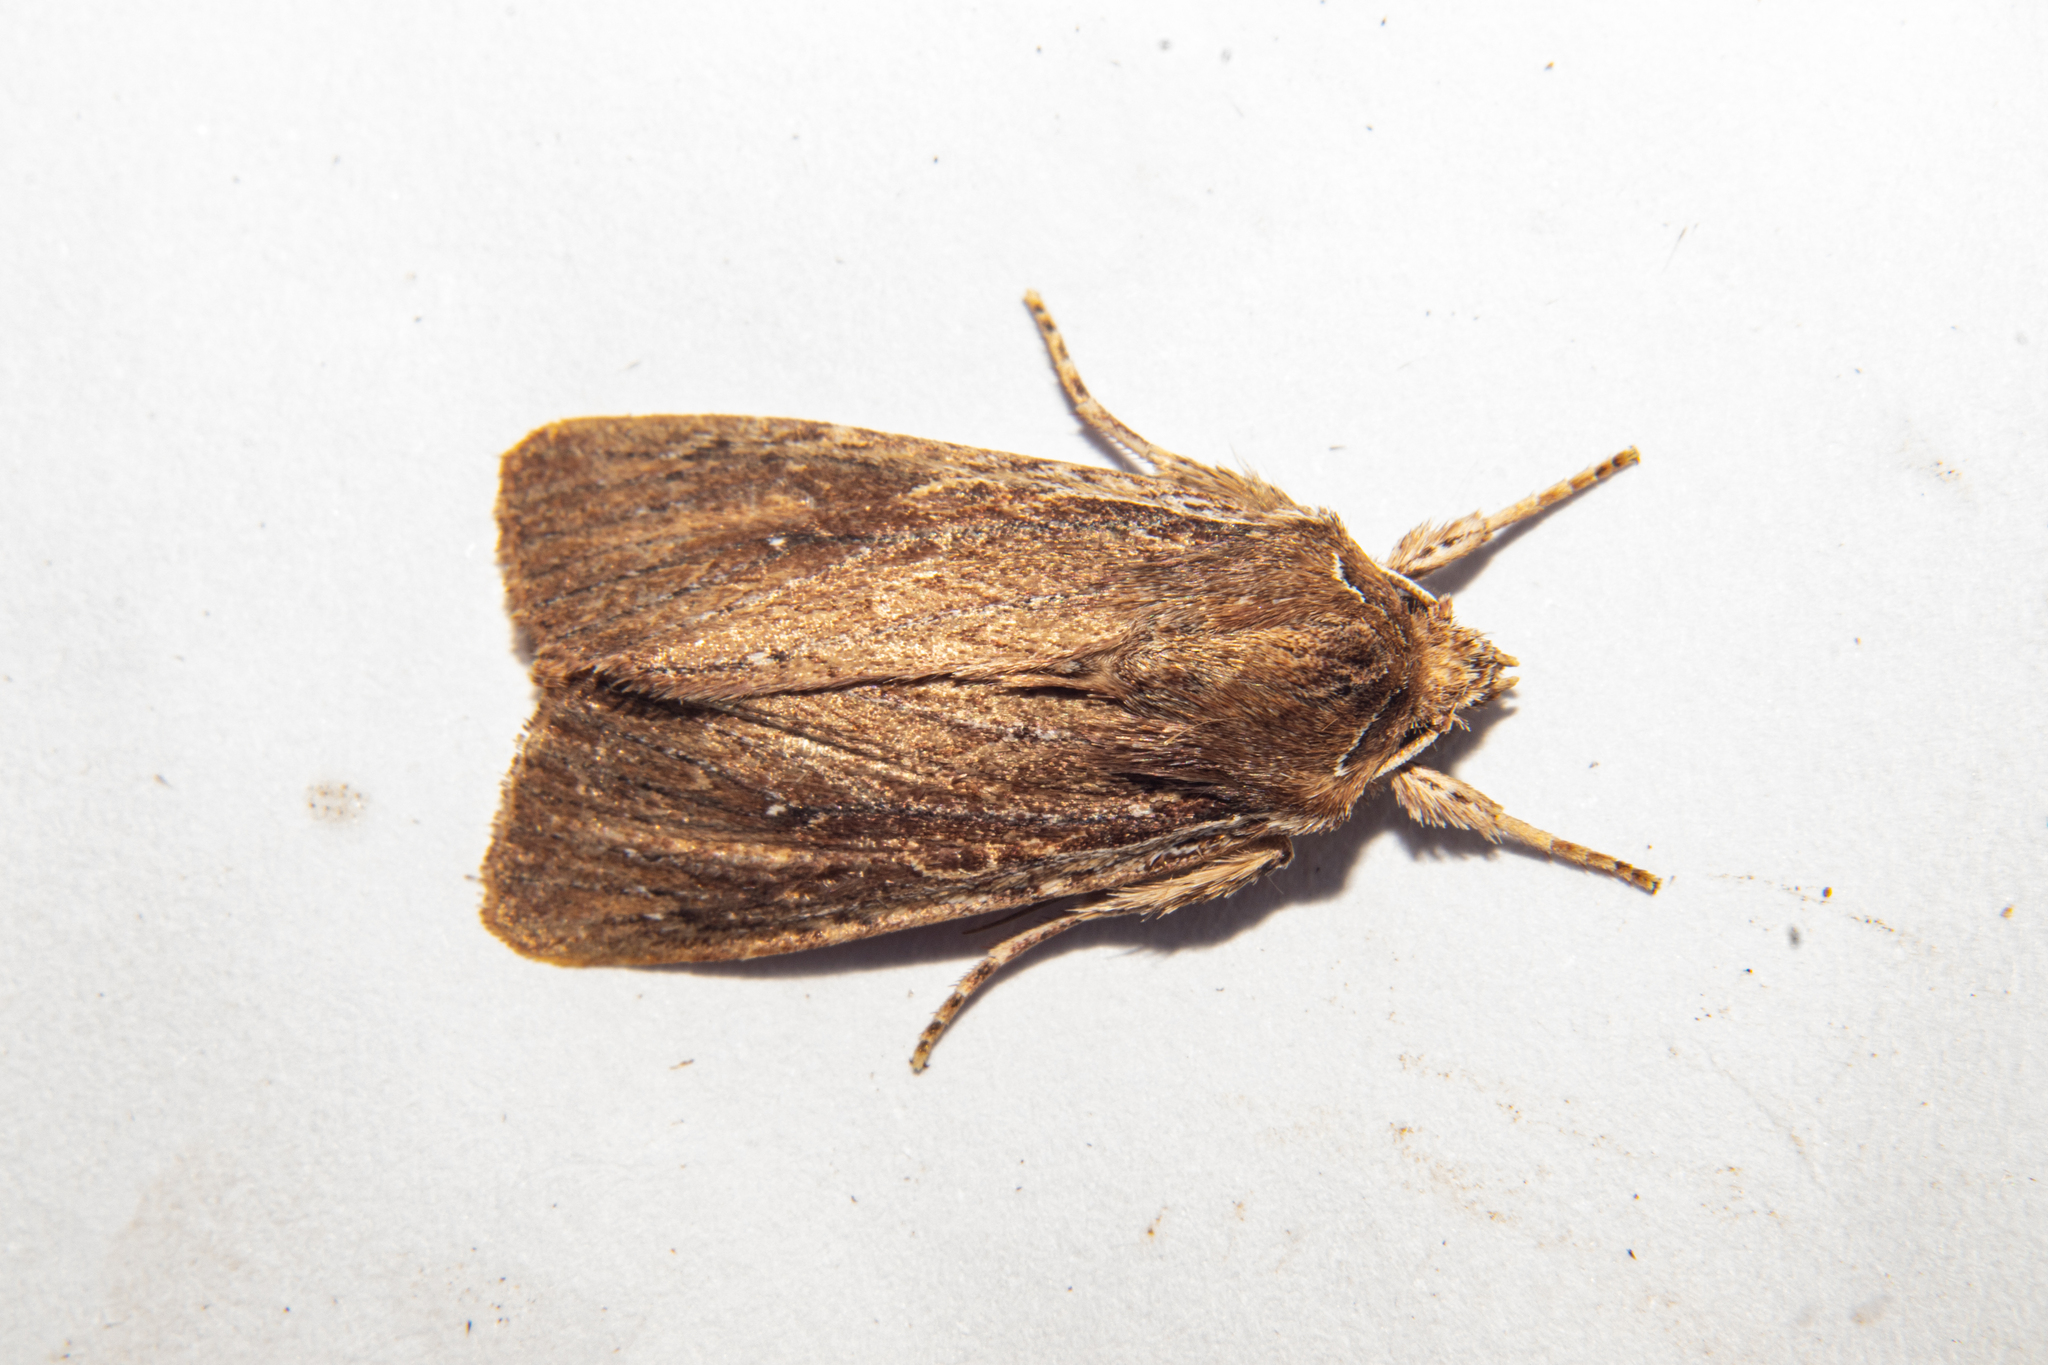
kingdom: Animalia
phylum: Arthropoda
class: Insecta
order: Lepidoptera
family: Noctuidae
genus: Ichneutica
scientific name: Ichneutica
